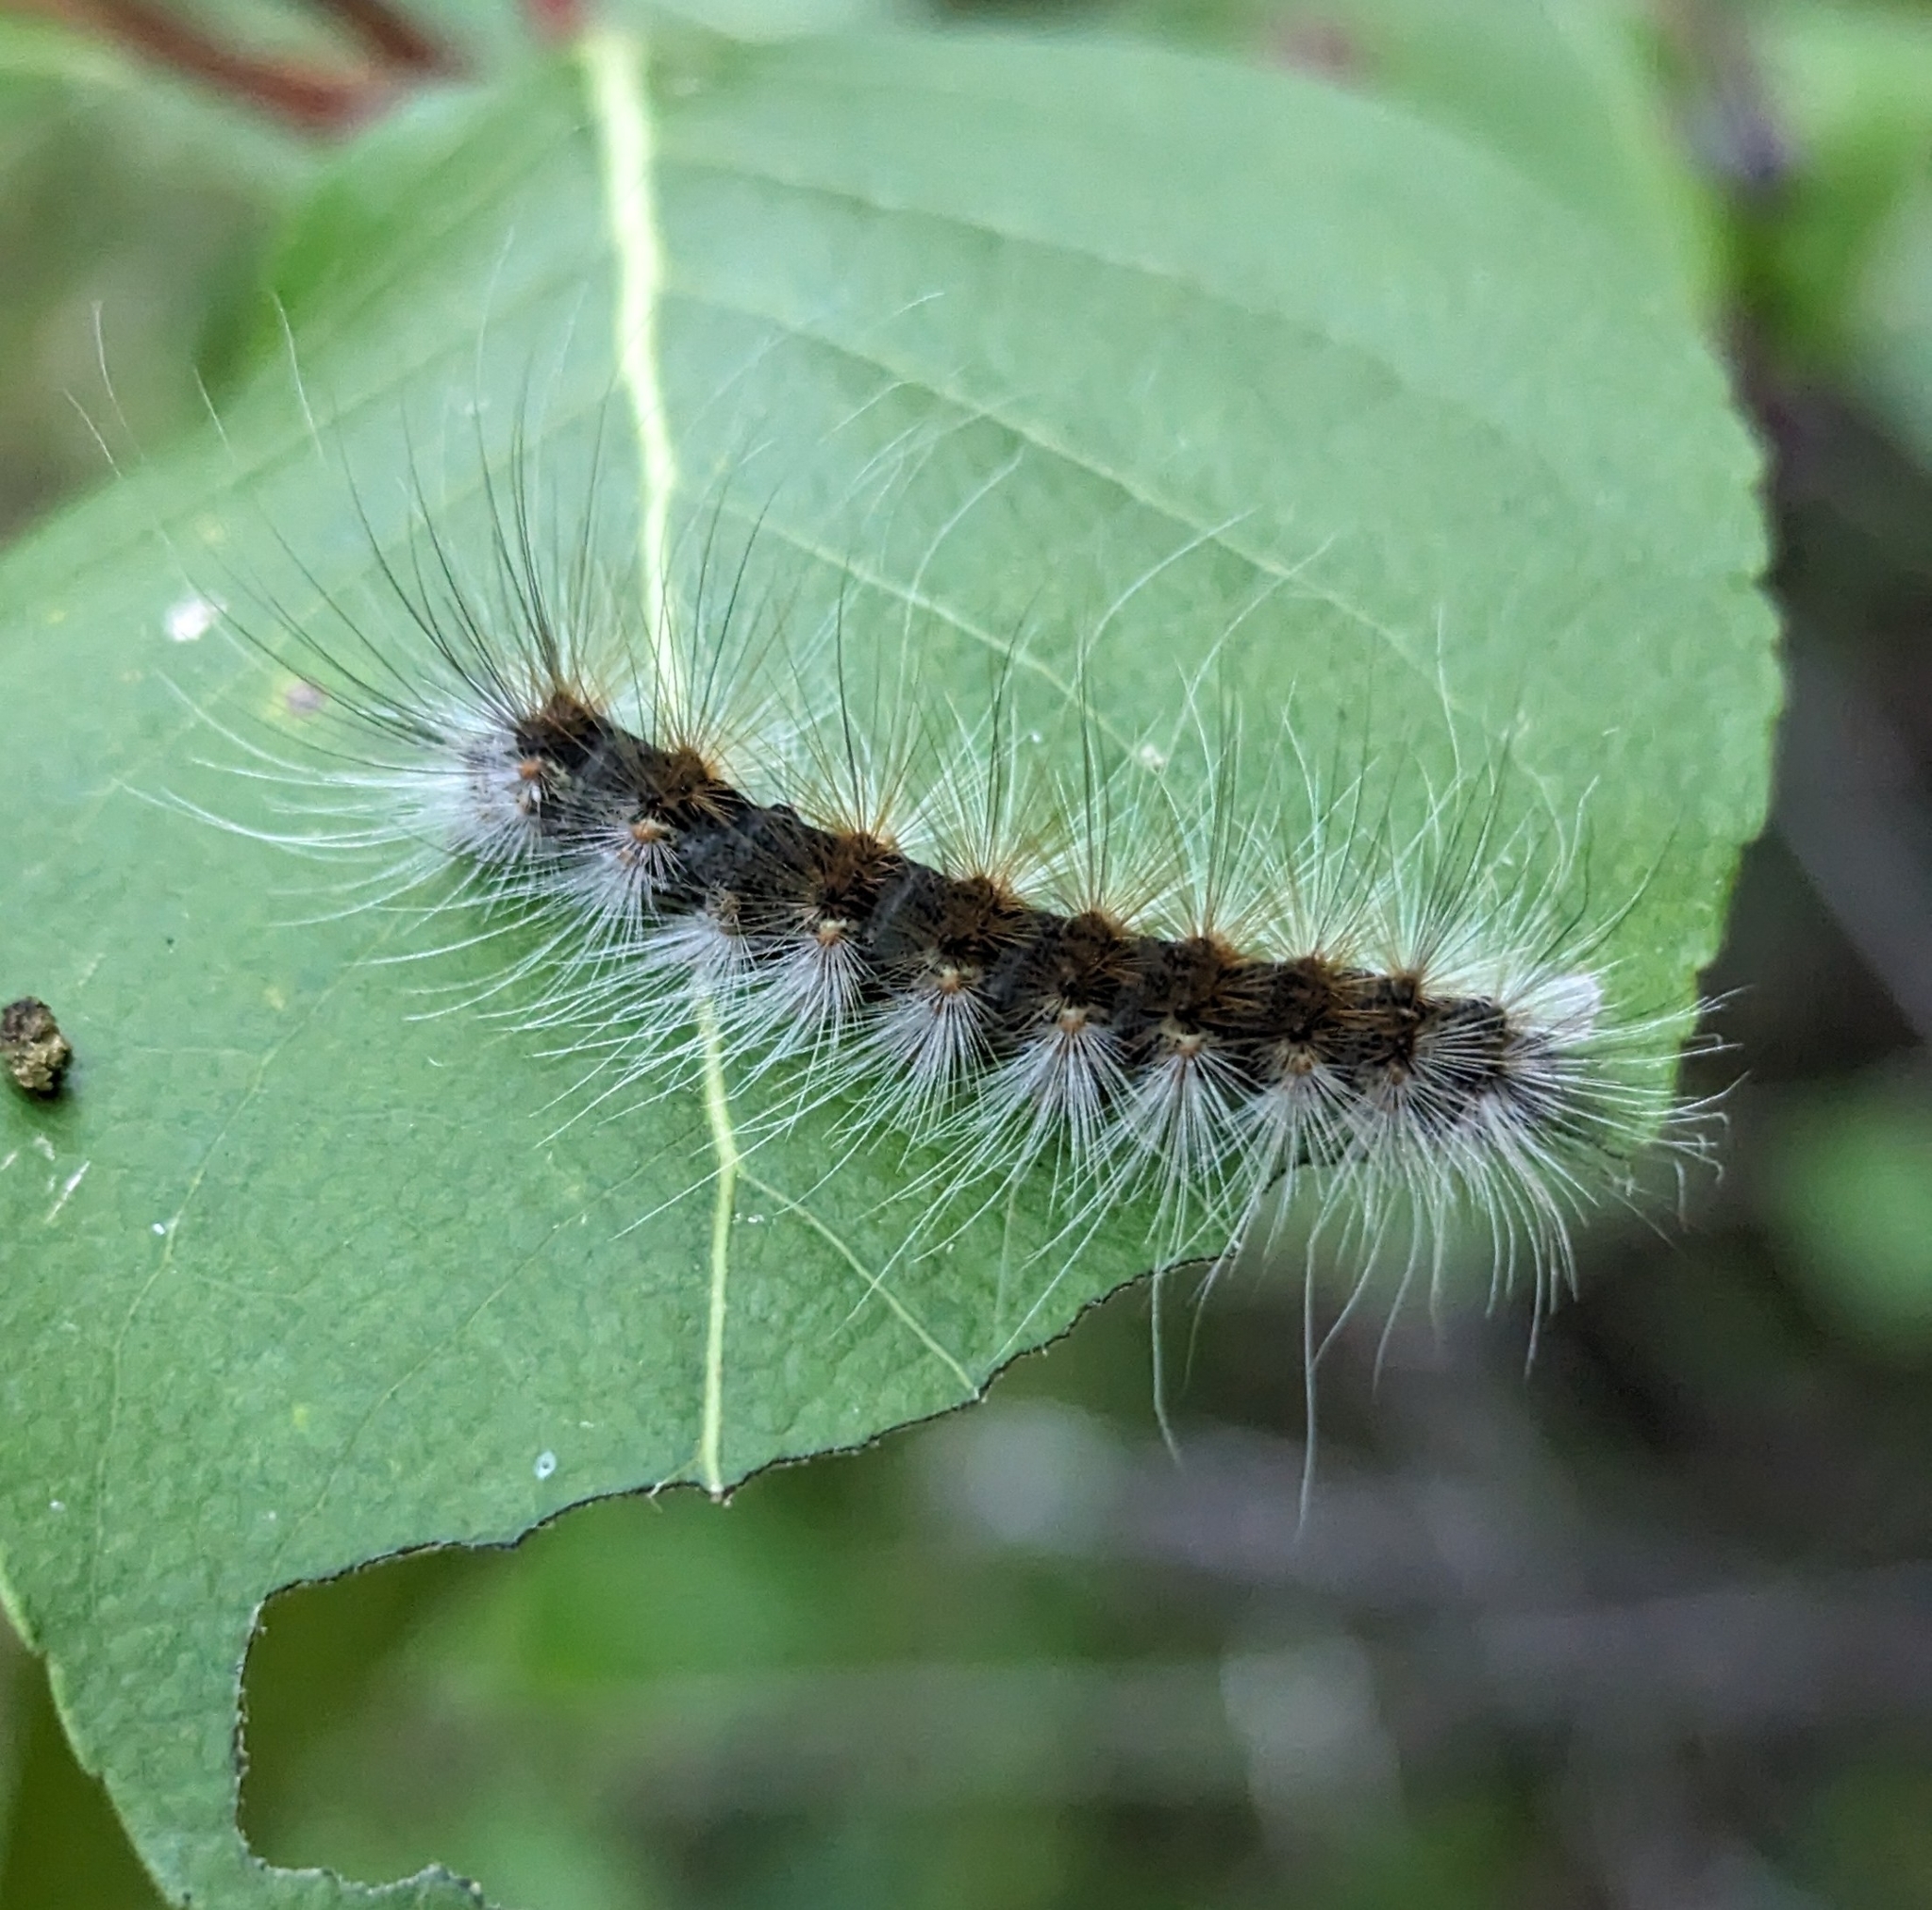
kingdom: Animalia
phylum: Arthropoda
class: Insecta
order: Lepidoptera
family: Erebidae
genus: Hyphantria
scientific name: Hyphantria cunea
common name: American white moth
